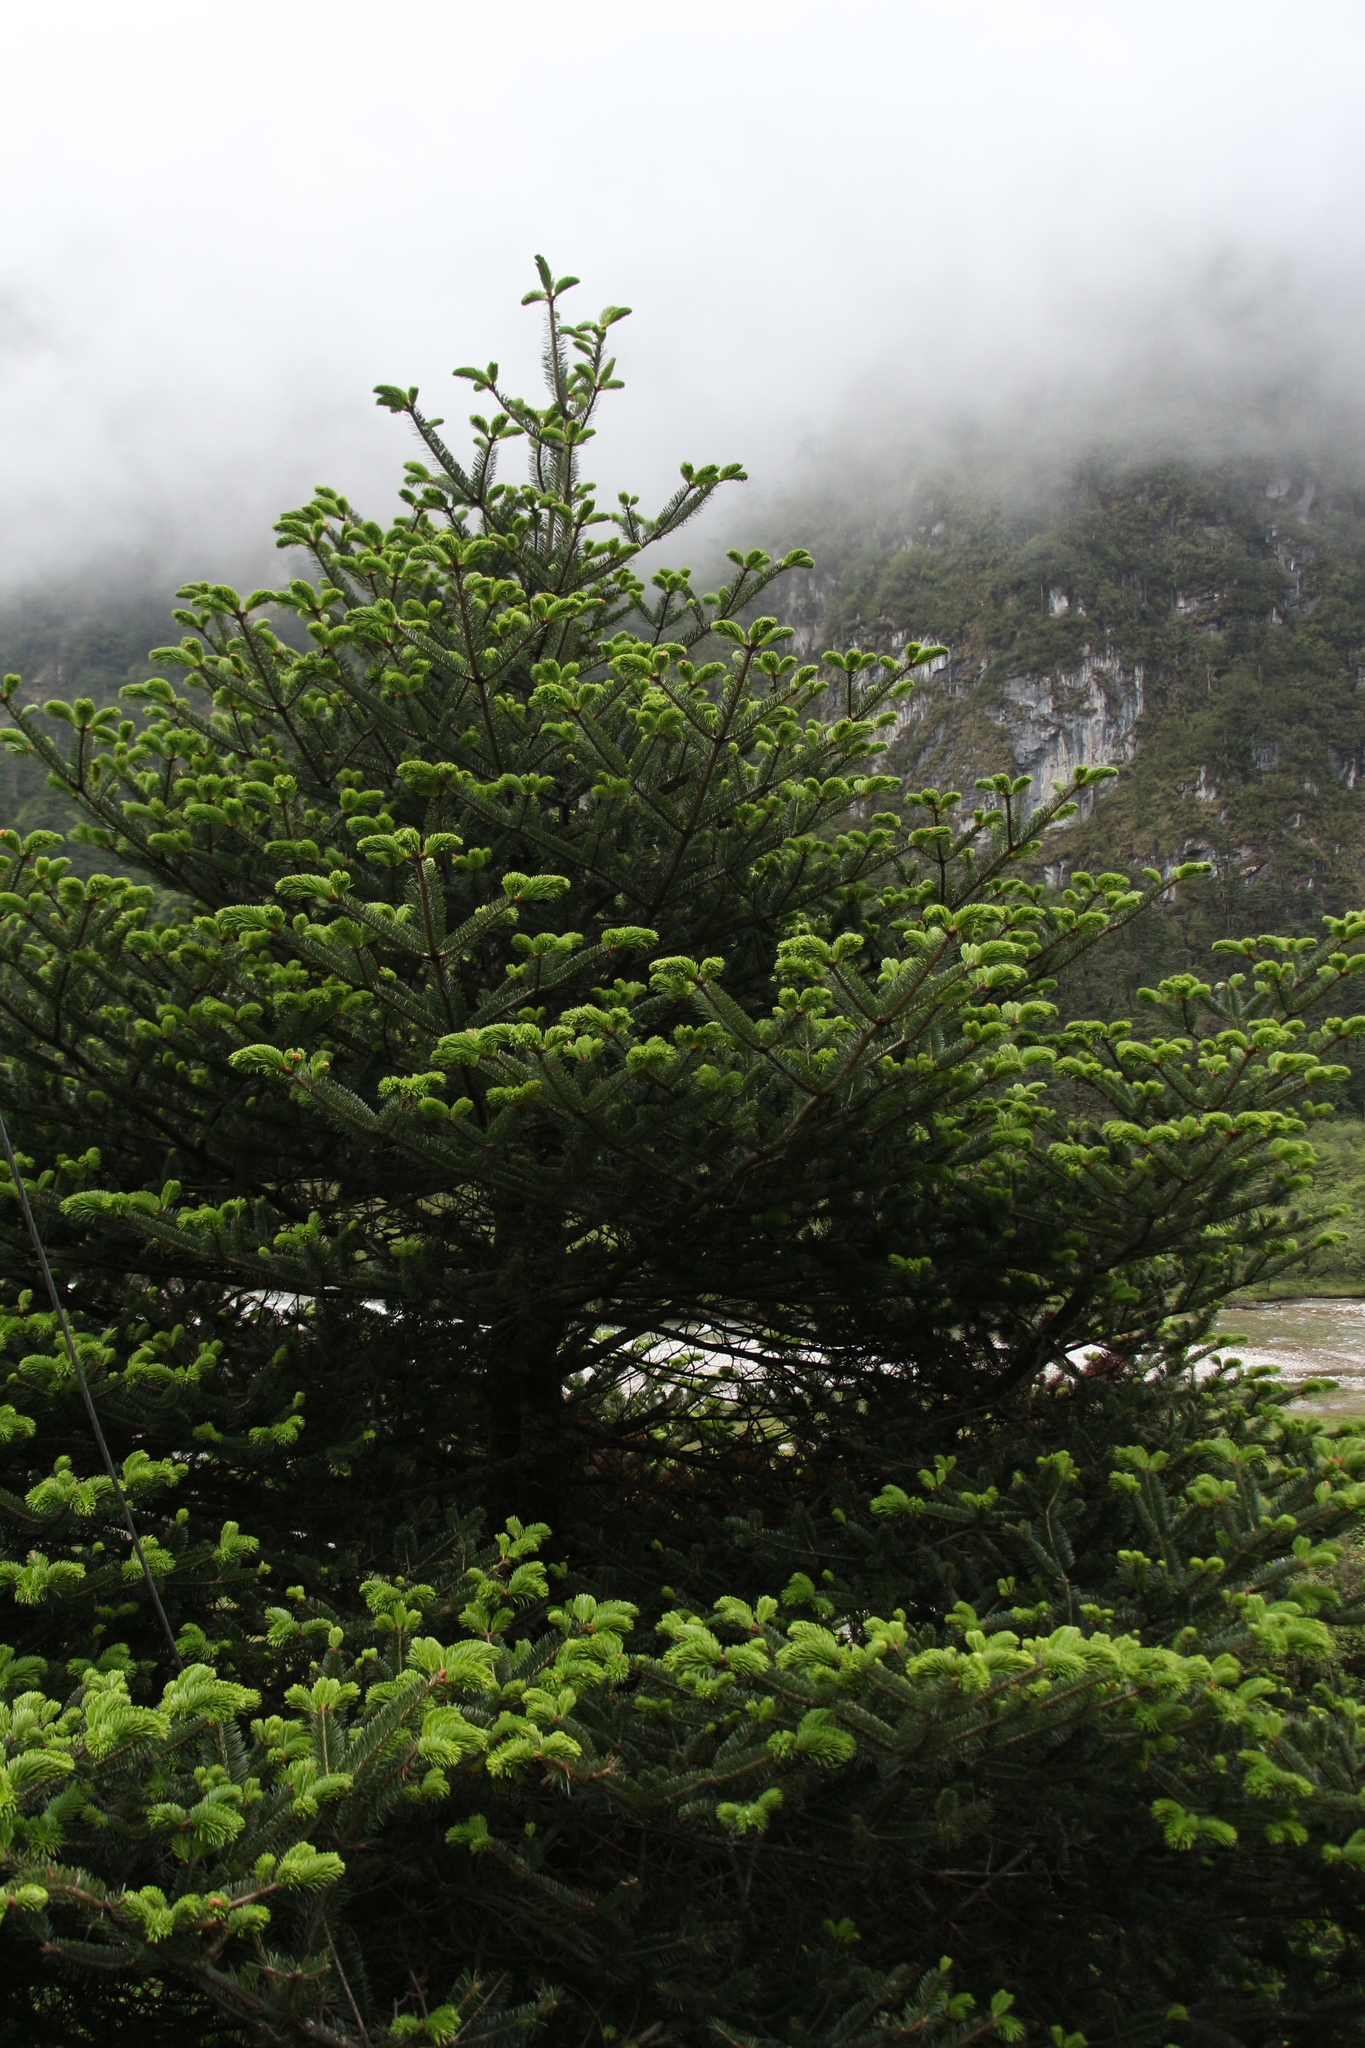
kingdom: Plantae
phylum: Tracheophyta
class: Pinopsida
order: Pinales
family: Pinaceae
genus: Abies
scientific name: Abies densa
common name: Sikkim fir
